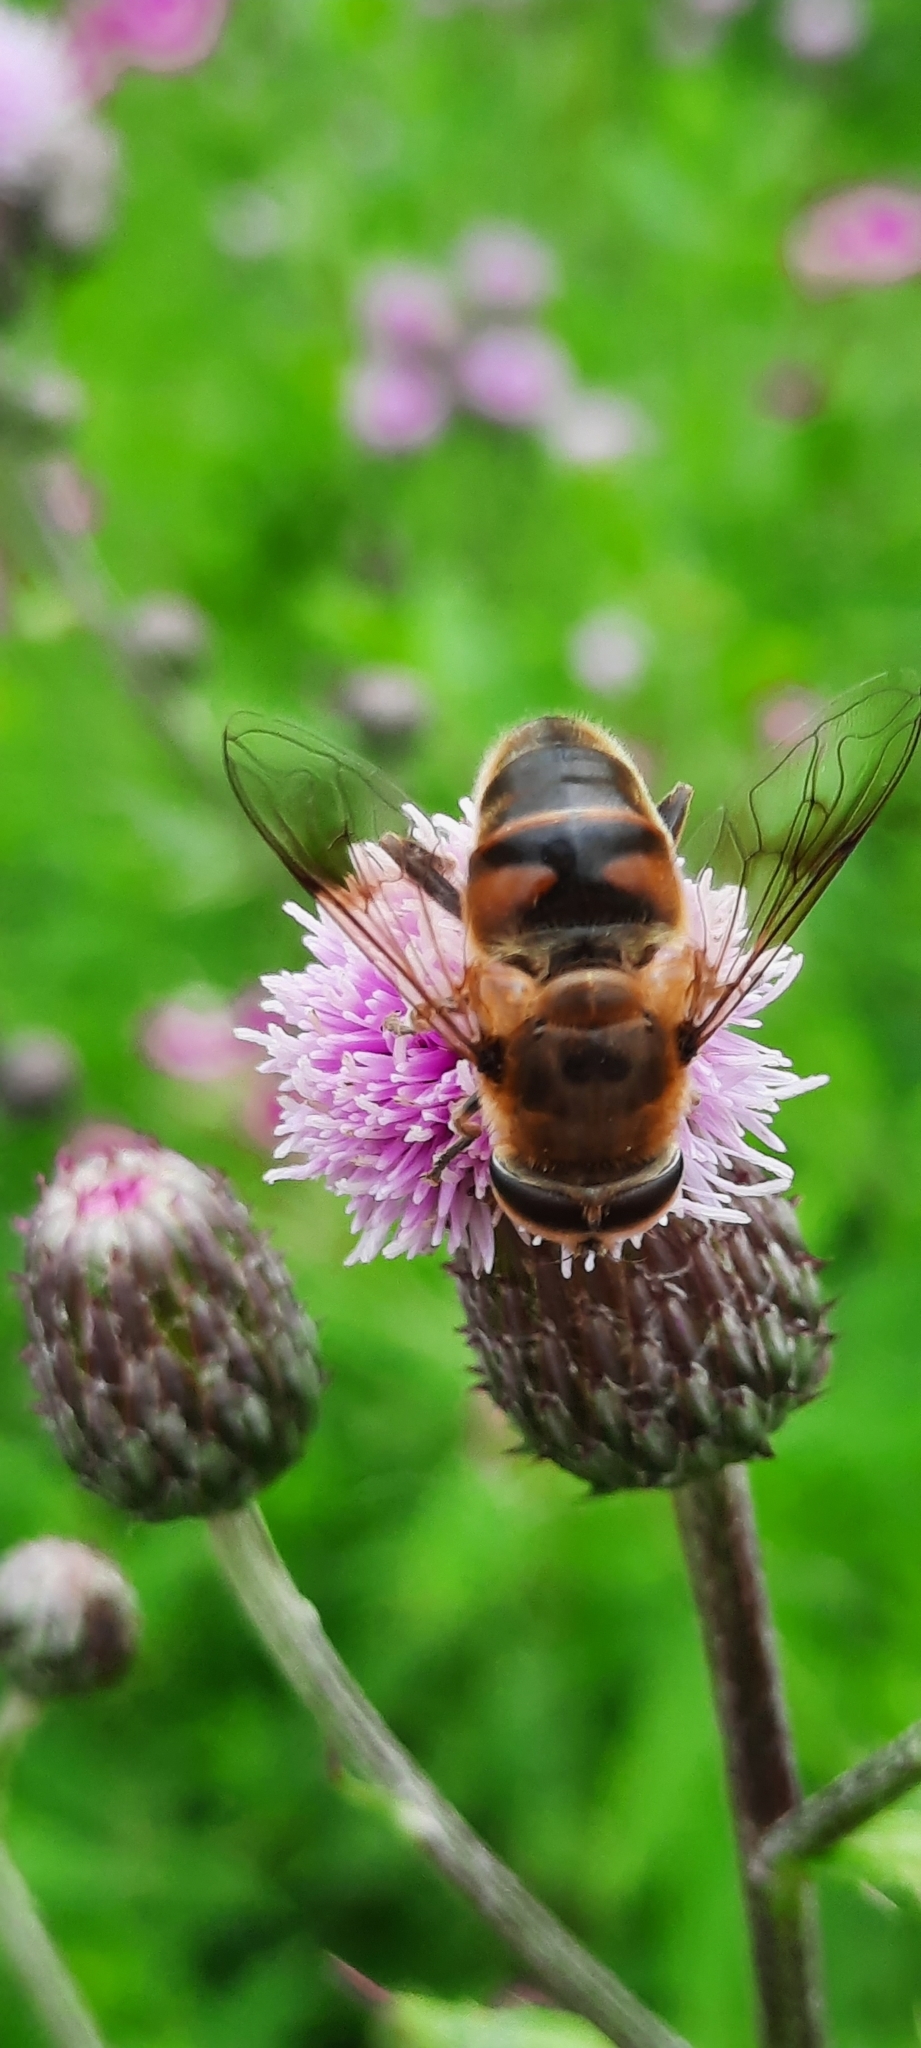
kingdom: Animalia
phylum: Arthropoda
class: Insecta
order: Diptera
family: Syrphidae
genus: Eristalis
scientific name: Eristalis tenax
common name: Drone fly
